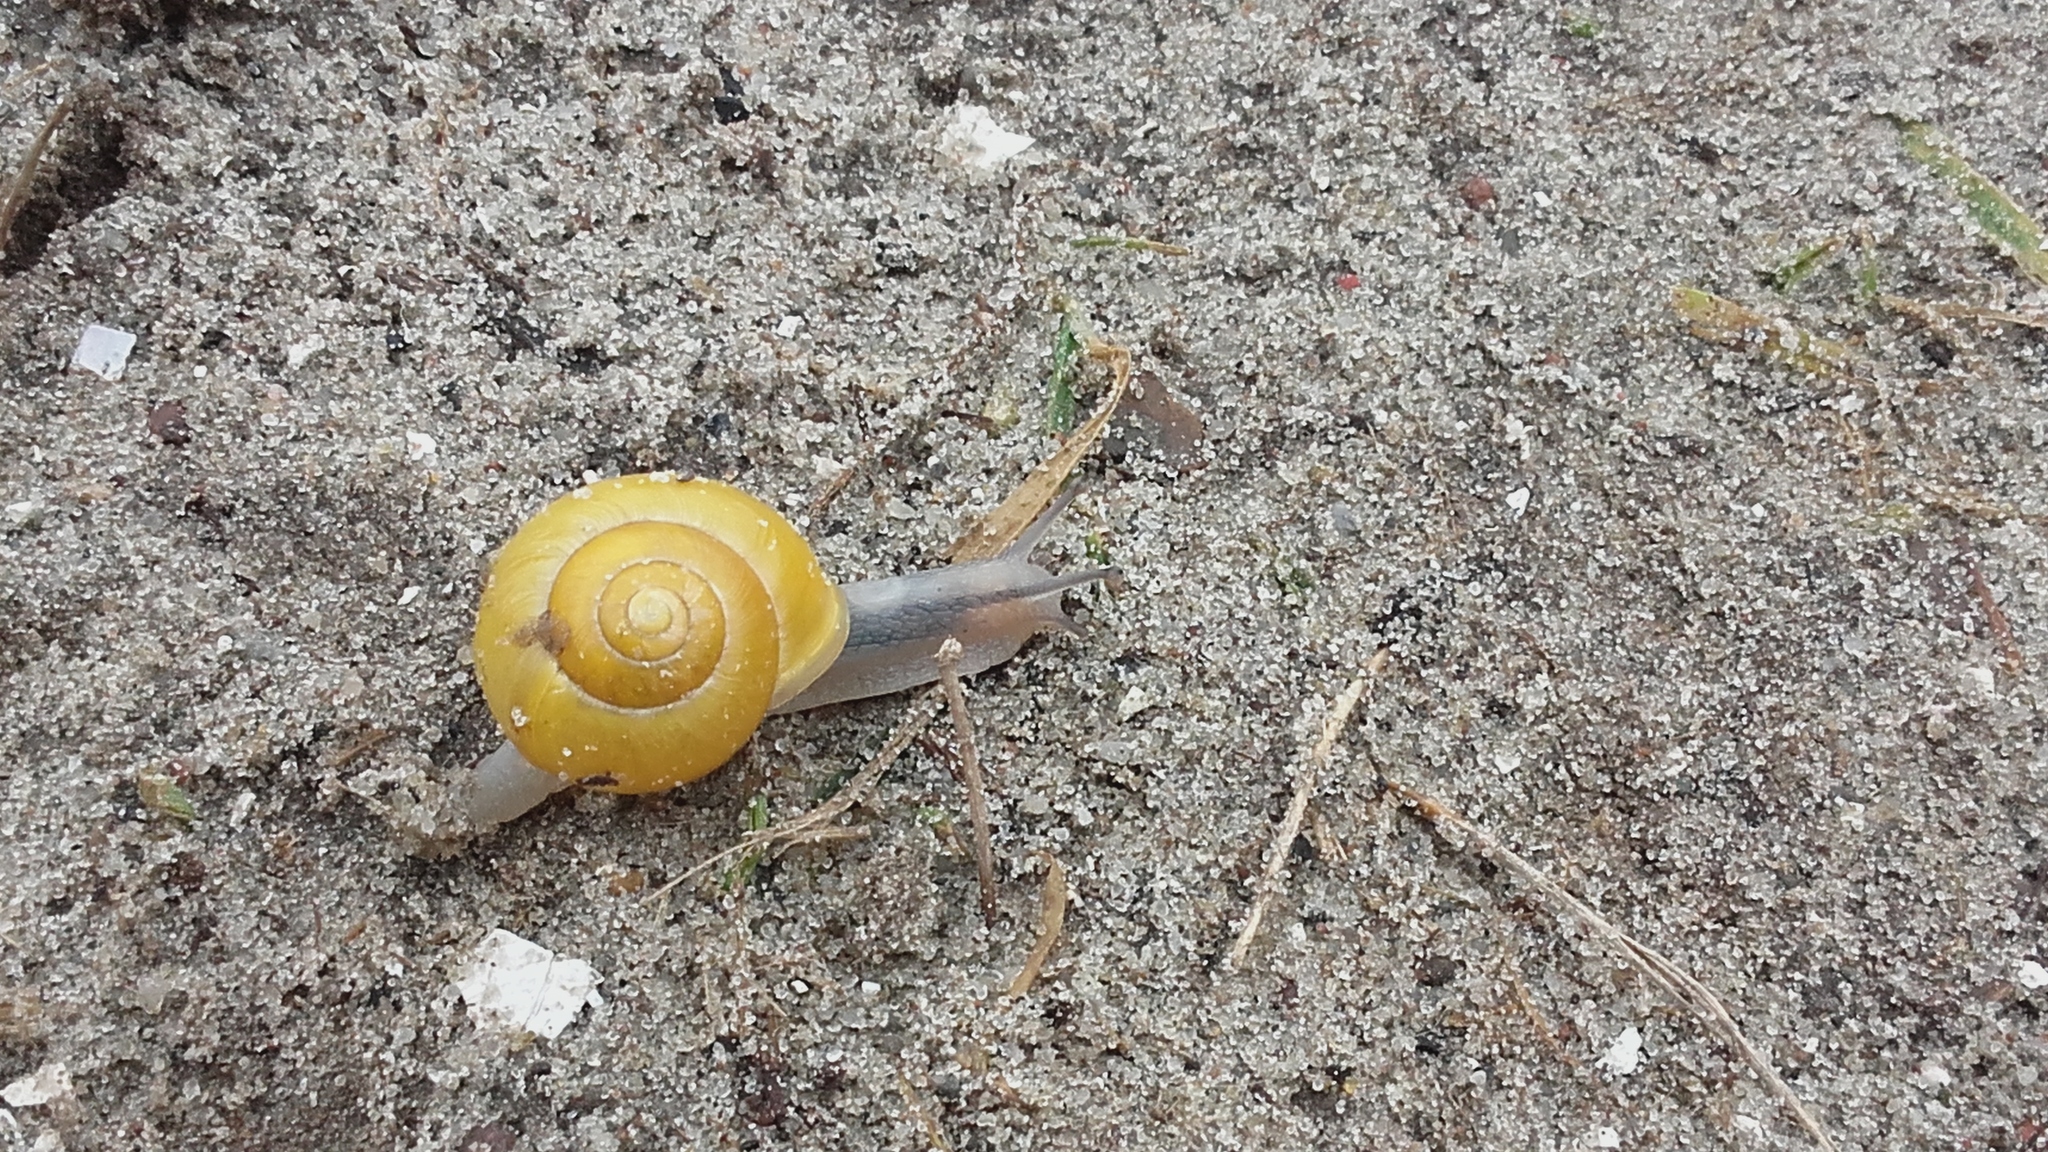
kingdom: Animalia
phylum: Mollusca
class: Gastropoda
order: Stylommatophora
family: Helicidae
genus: Cepaea
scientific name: Cepaea hortensis
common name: White-lip gardensnail
